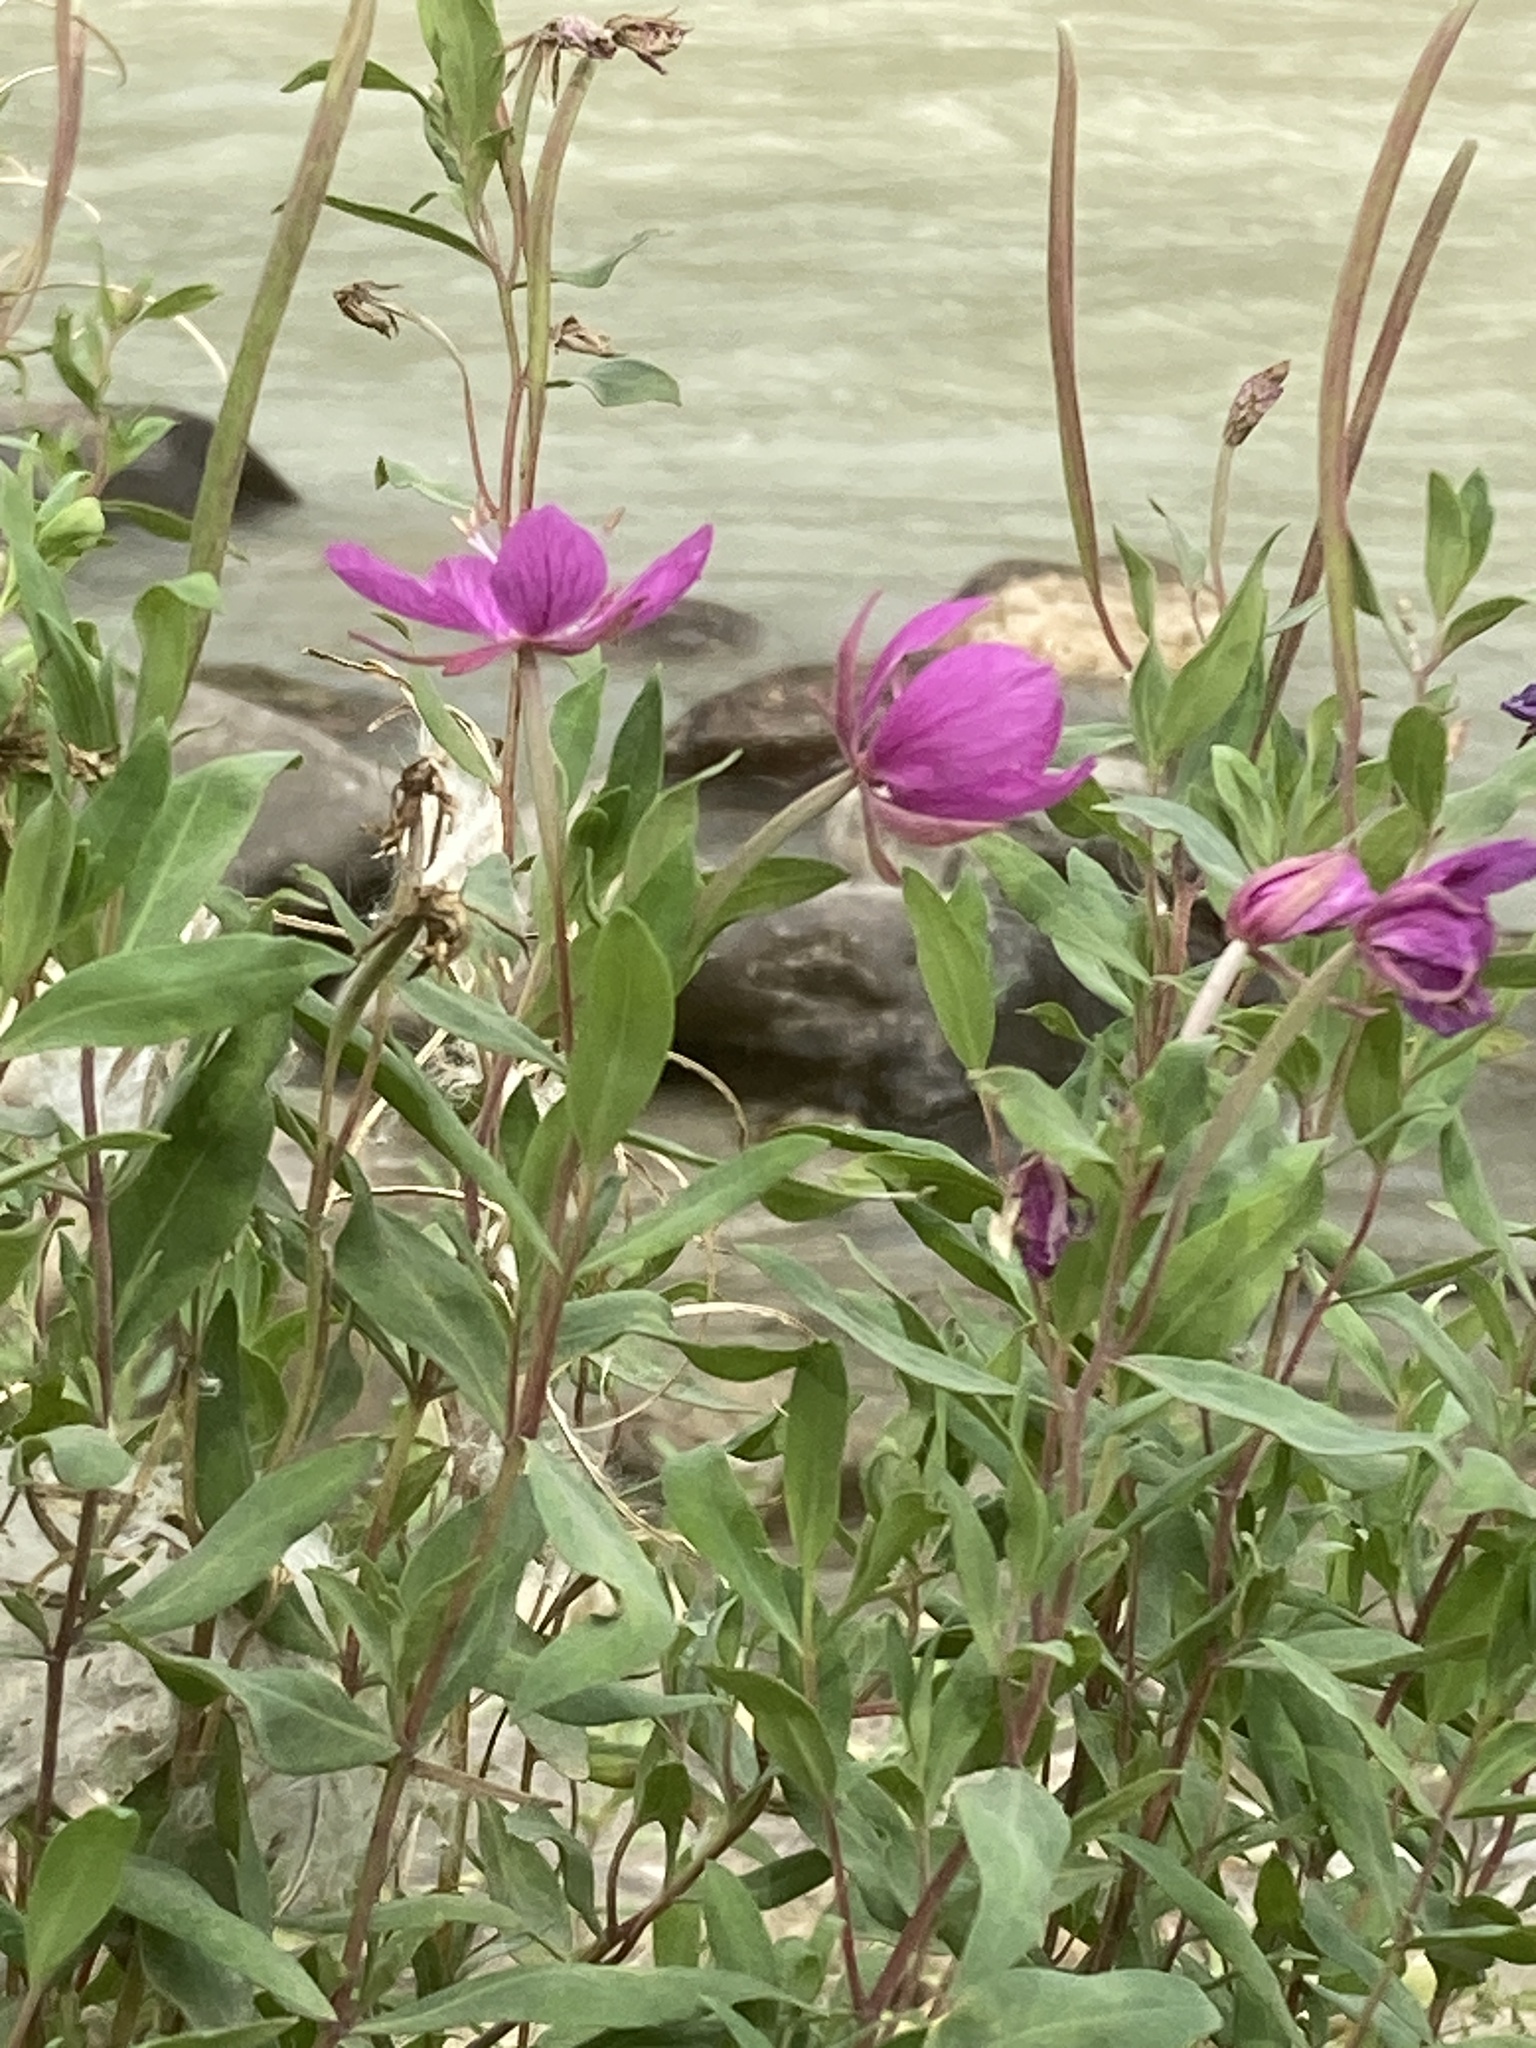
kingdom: Plantae
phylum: Tracheophyta
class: Magnoliopsida
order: Myrtales
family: Onagraceae
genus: Chamaenerion
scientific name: Chamaenerion latifolium
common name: Dwarf fireweed
